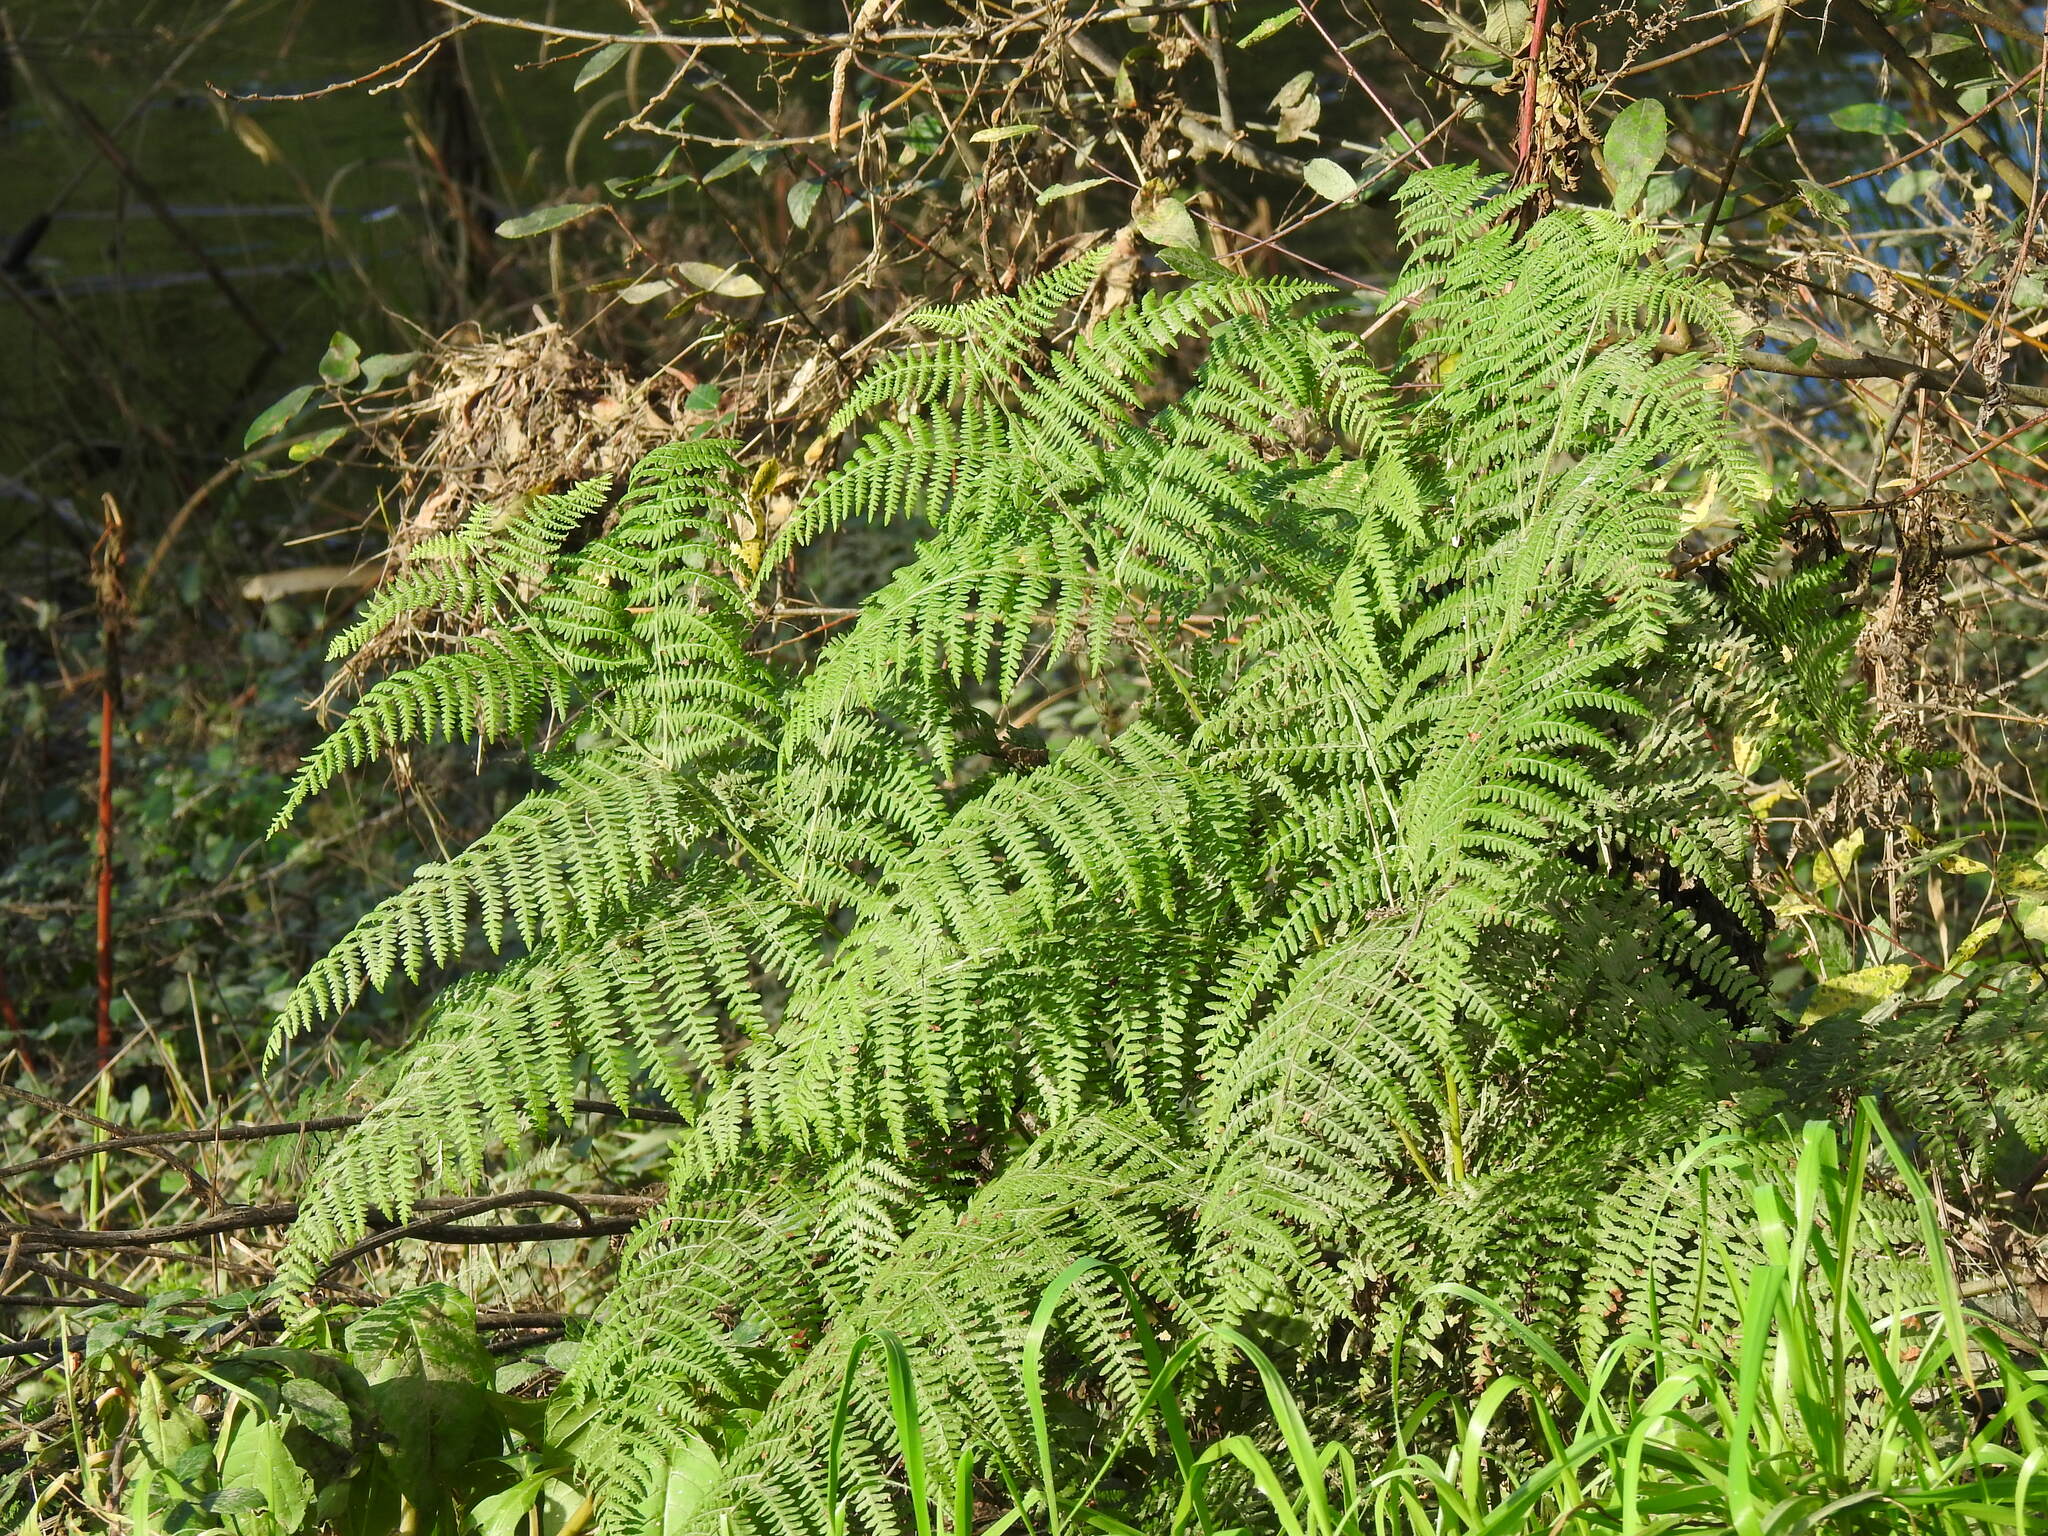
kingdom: Plantae
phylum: Tracheophyta
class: Polypodiopsida
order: Polypodiales
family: Dennstaedtiaceae
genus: Pteridium
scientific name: Pteridium aquilinum
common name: Bracken
